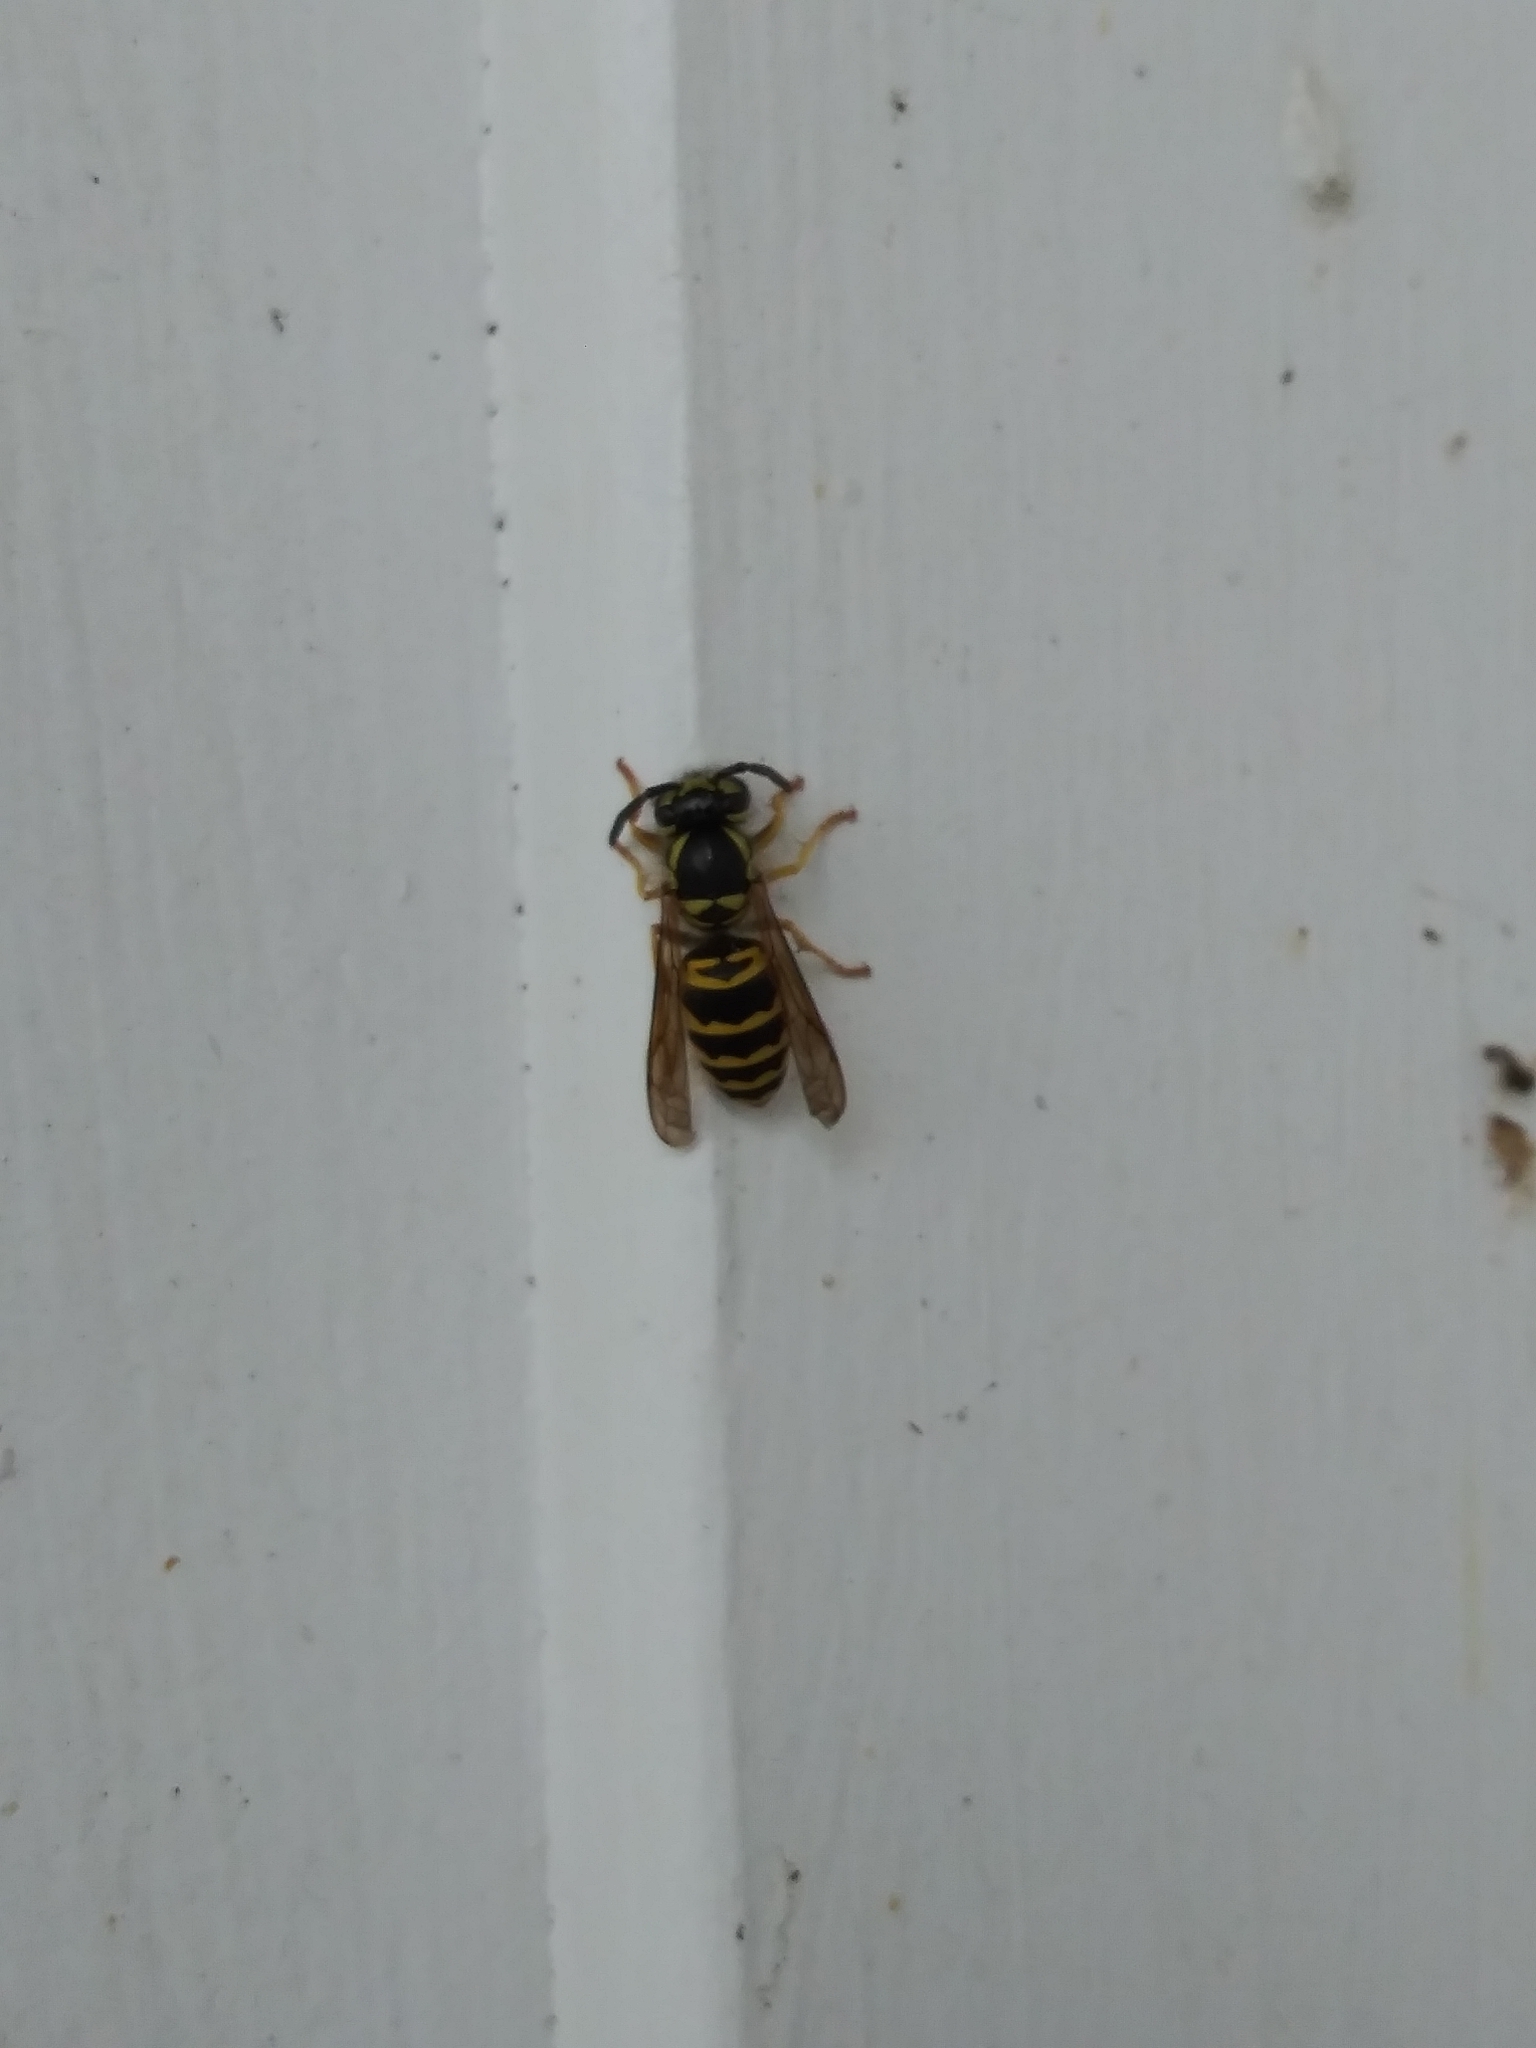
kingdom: Animalia
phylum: Arthropoda
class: Insecta
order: Hymenoptera
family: Vespidae
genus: Vespula
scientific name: Vespula maculifrons
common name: Eastern yellowjacket
